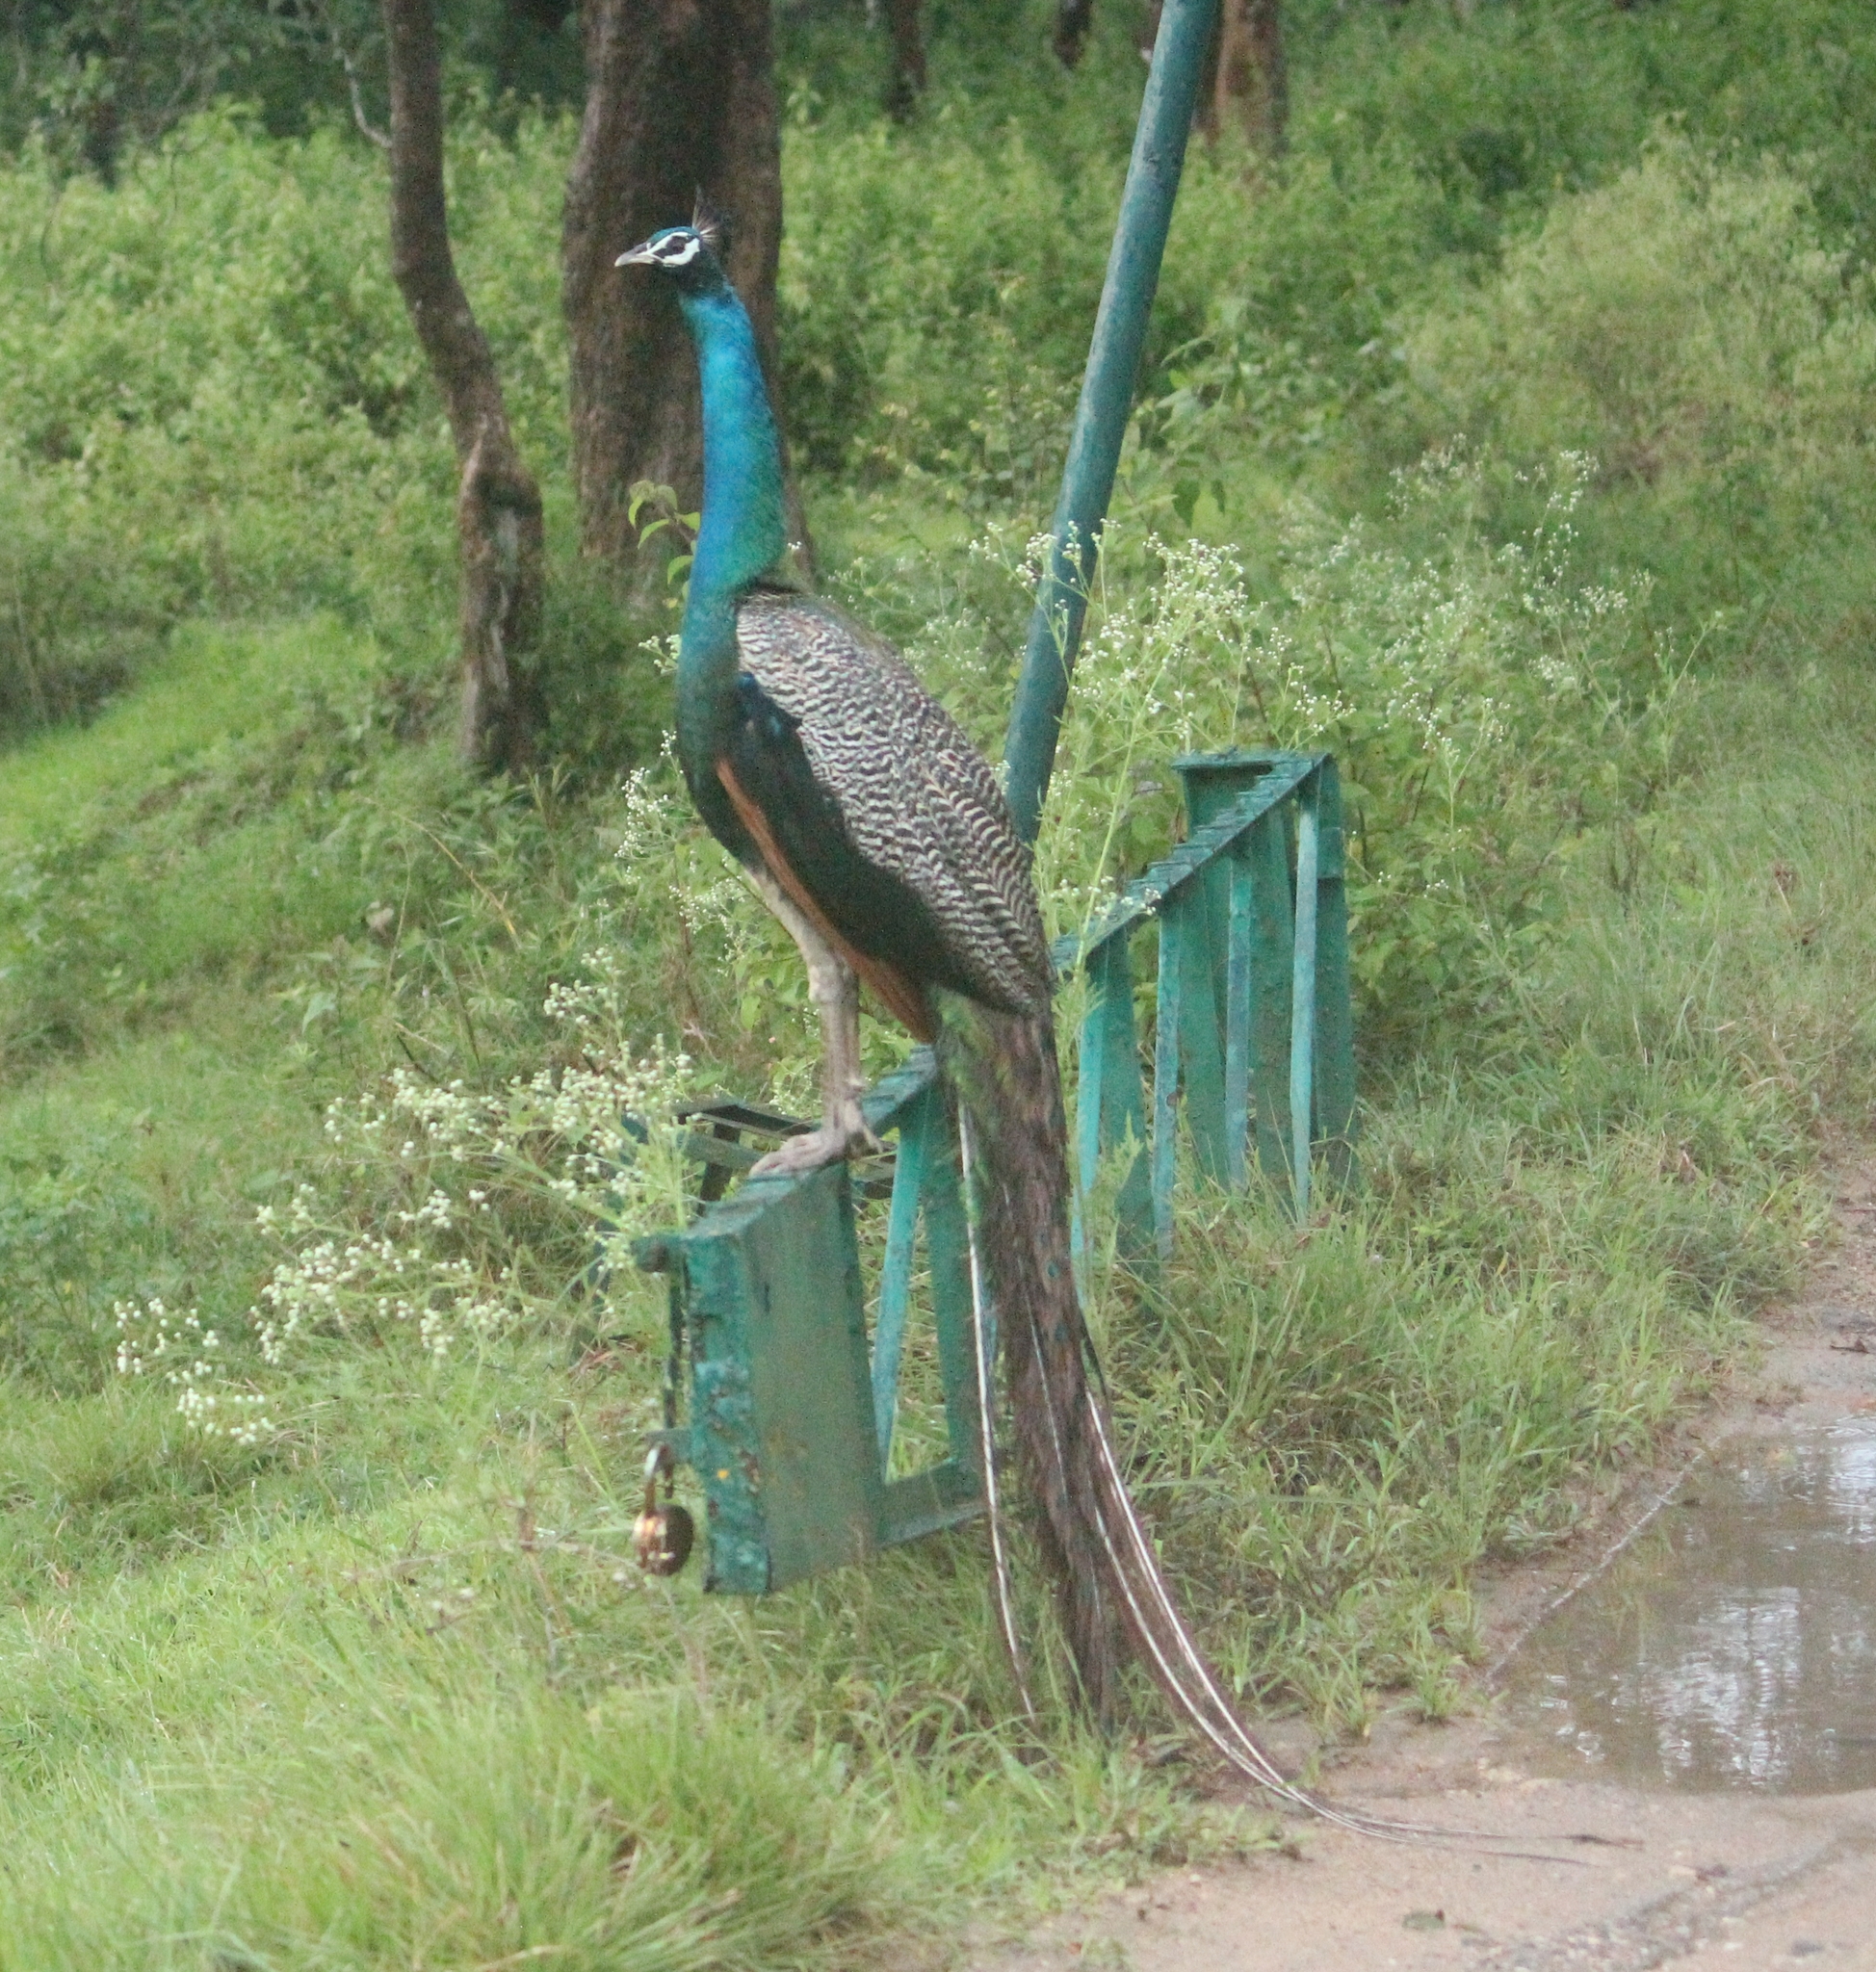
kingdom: Animalia
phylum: Chordata
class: Aves
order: Galliformes
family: Phasianidae
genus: Pavo
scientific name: Pavo cristatus
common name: Indian peafowl
